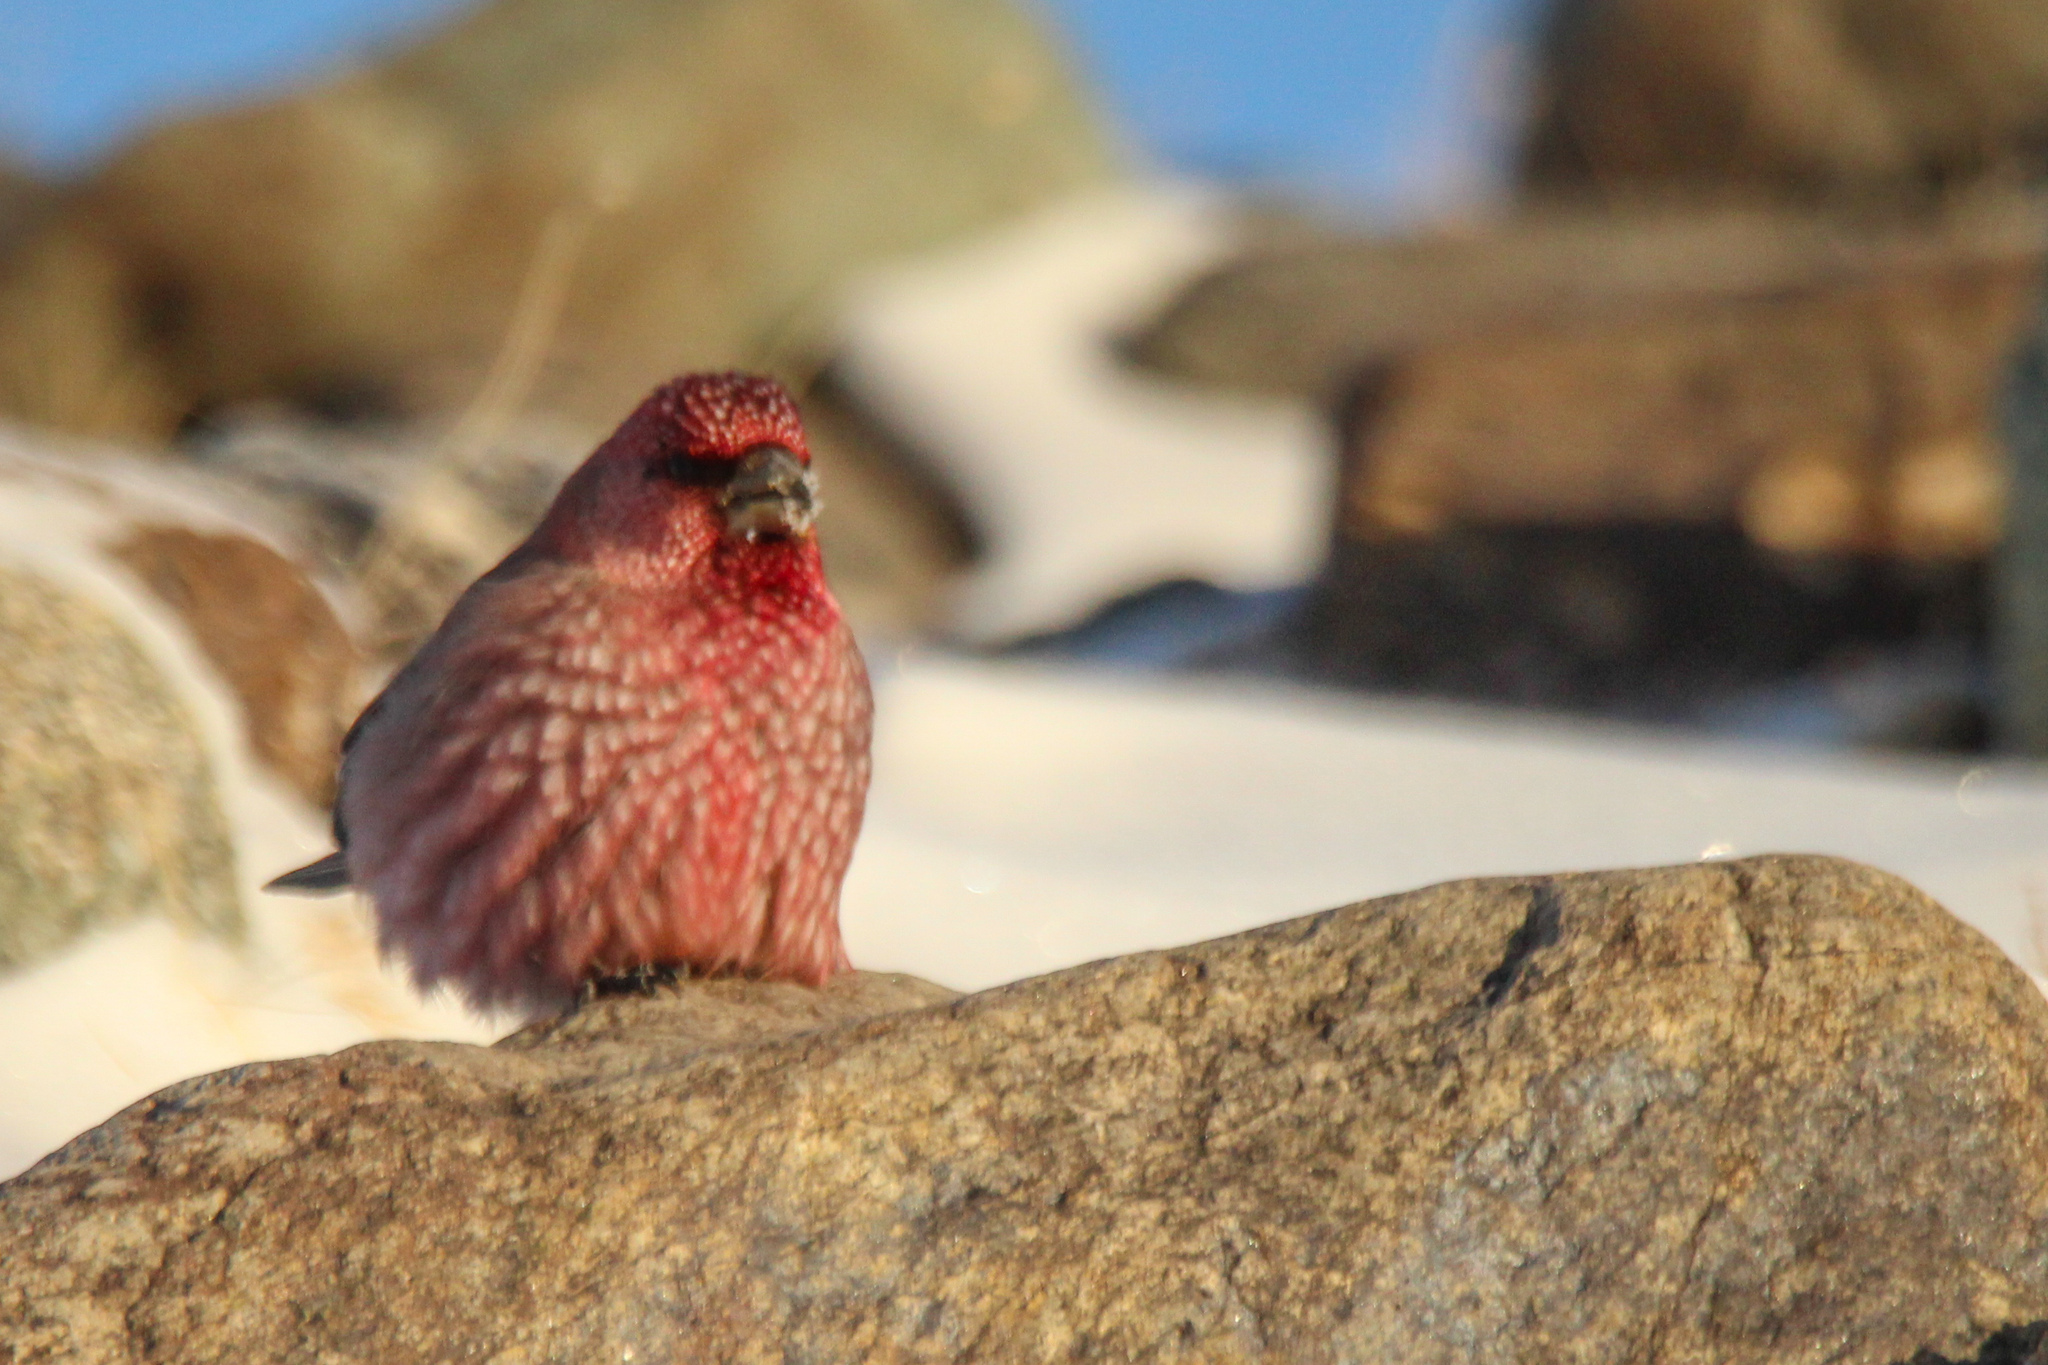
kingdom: Animalia
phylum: Chordata
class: Aves
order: Passeriformes
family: Fringillidae
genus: Carpodacus
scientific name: Carpodacus rubicilla
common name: Great rosefinch
